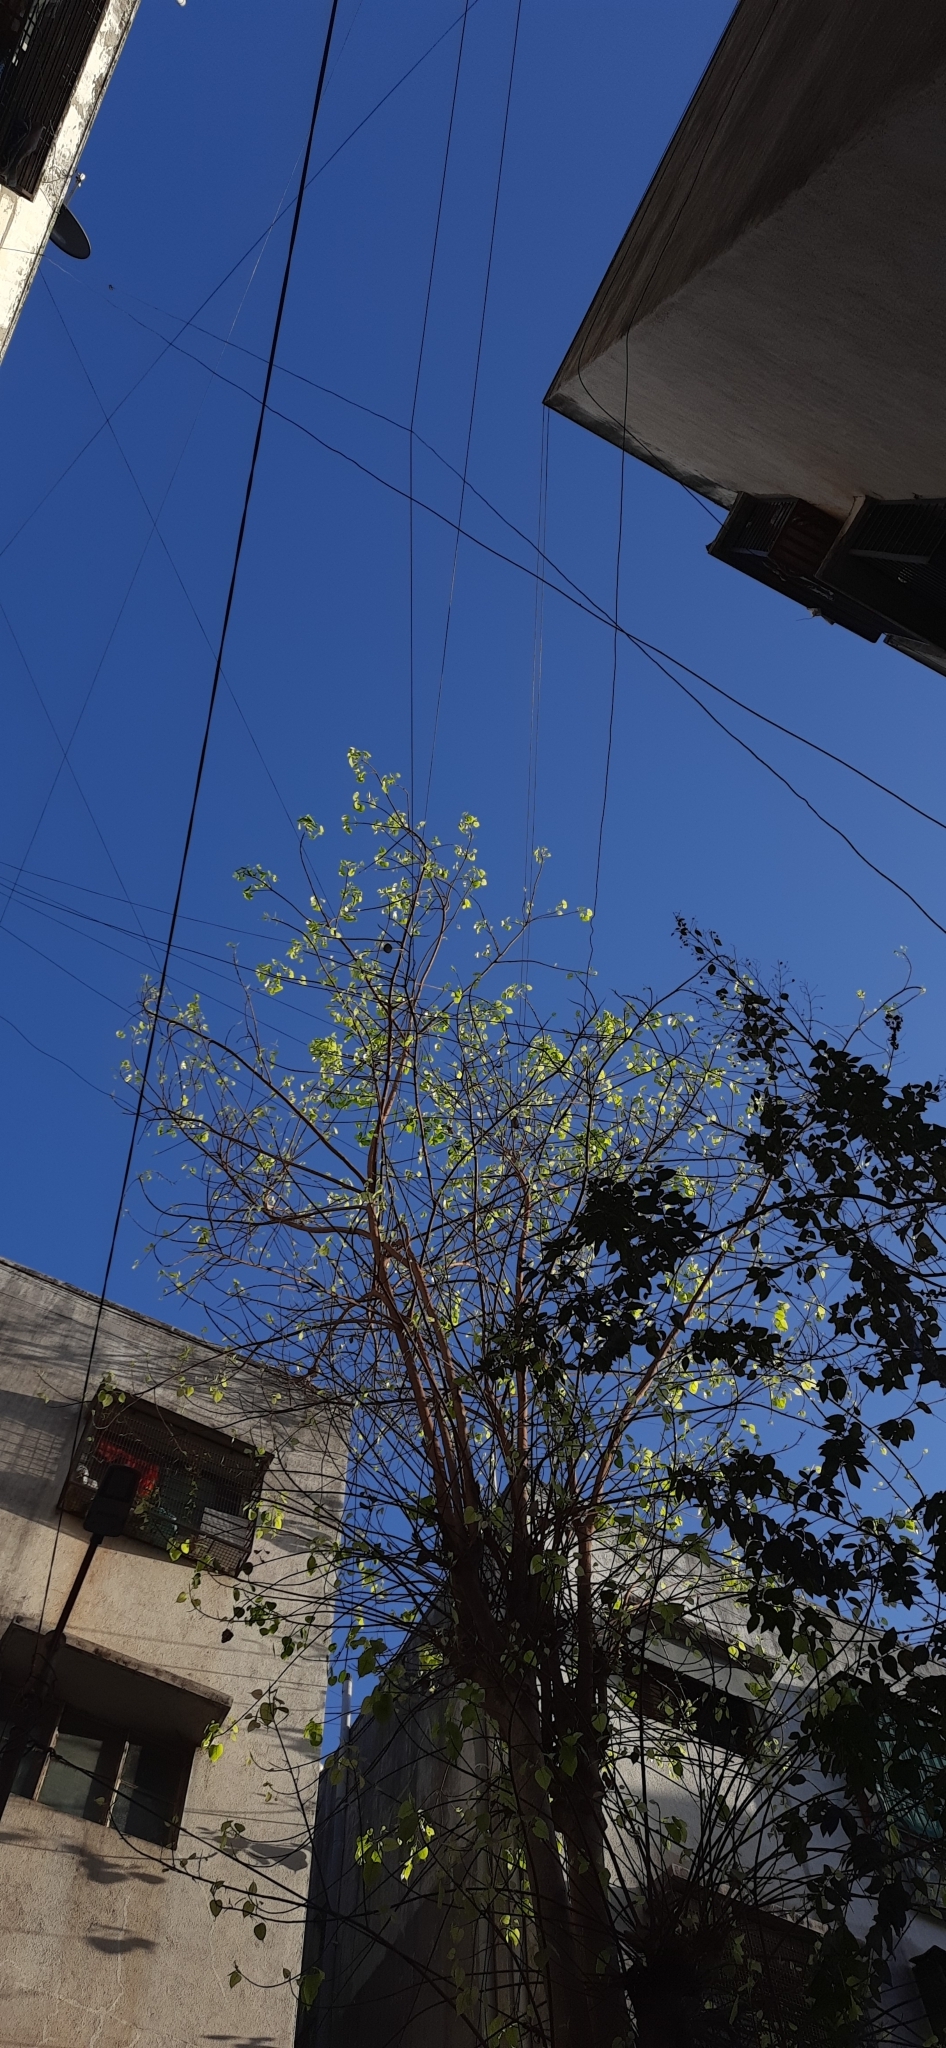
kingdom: Plantae
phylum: Tracheophyta
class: Magnoliopsida
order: Rosales
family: Moraceae
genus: Ficus
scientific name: Ficus religiosa
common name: Bodhi tree
